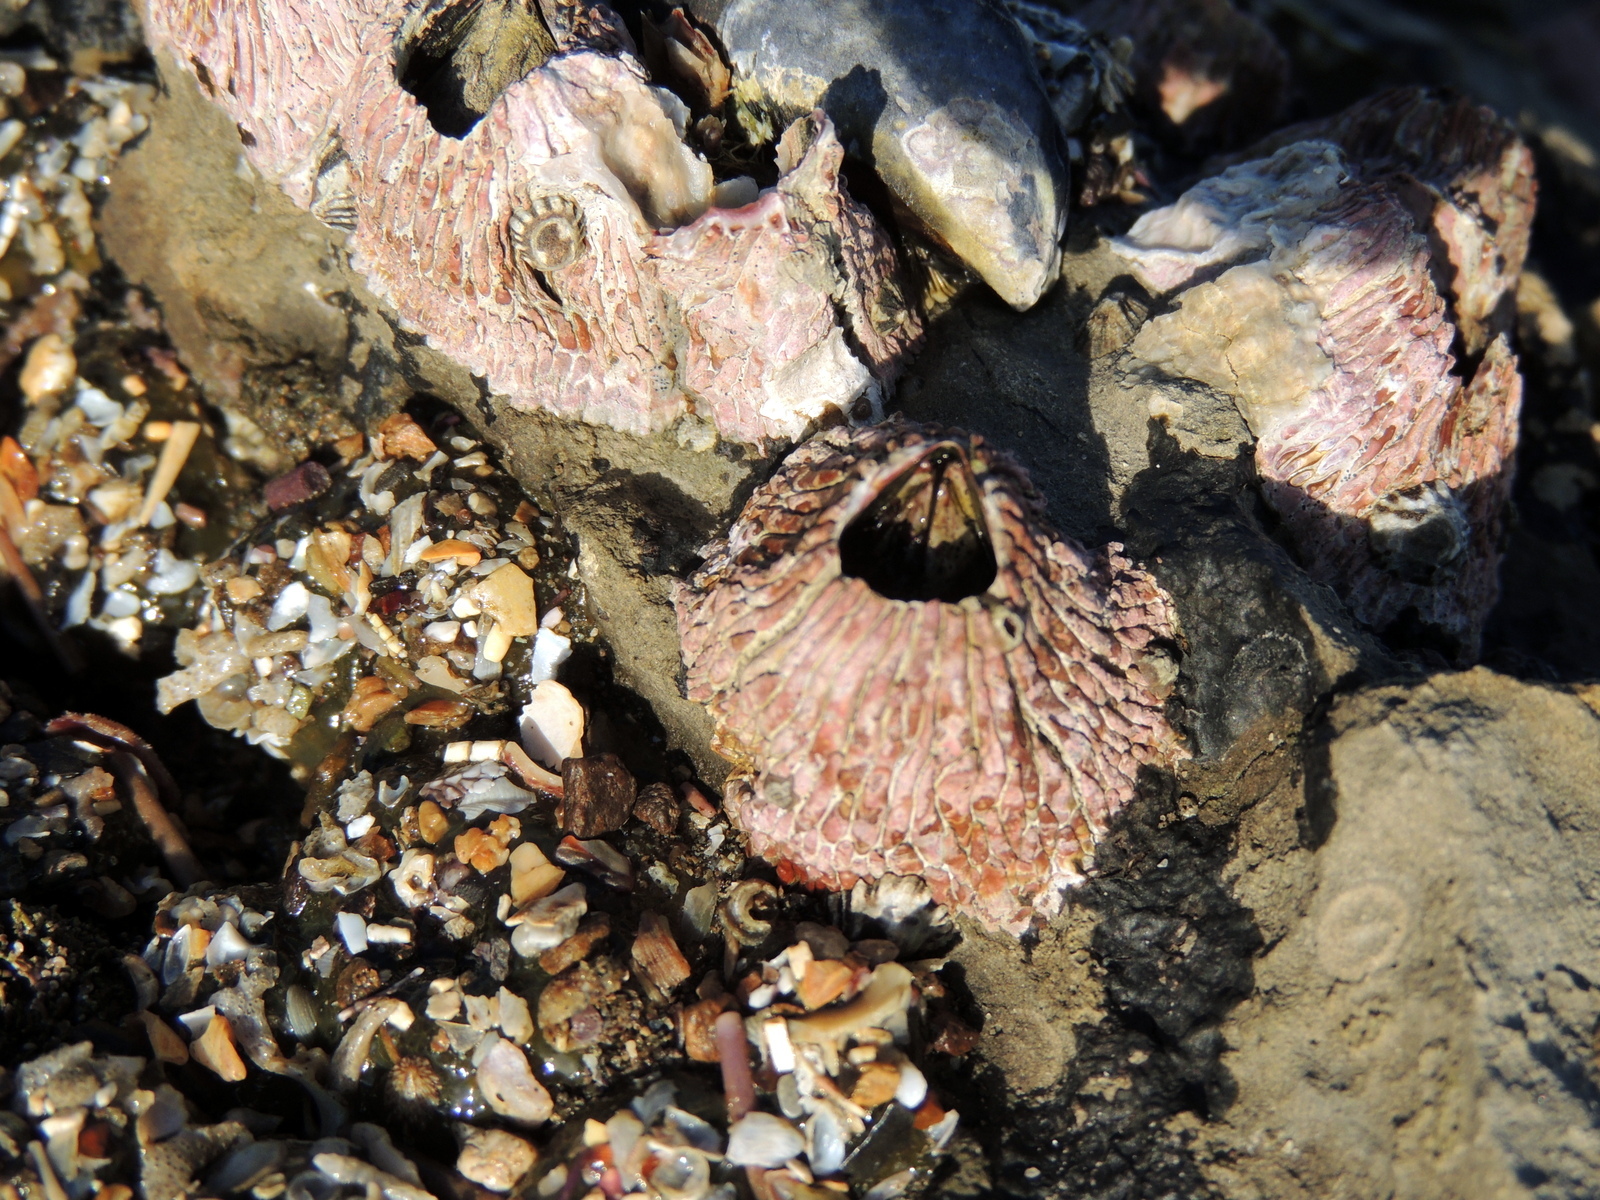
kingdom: Animalia
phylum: Arthropoda
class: Maxillopoda
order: Sessilia
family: Tetraclitidae
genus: Tetraclita
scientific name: Tetraclita rubescens
